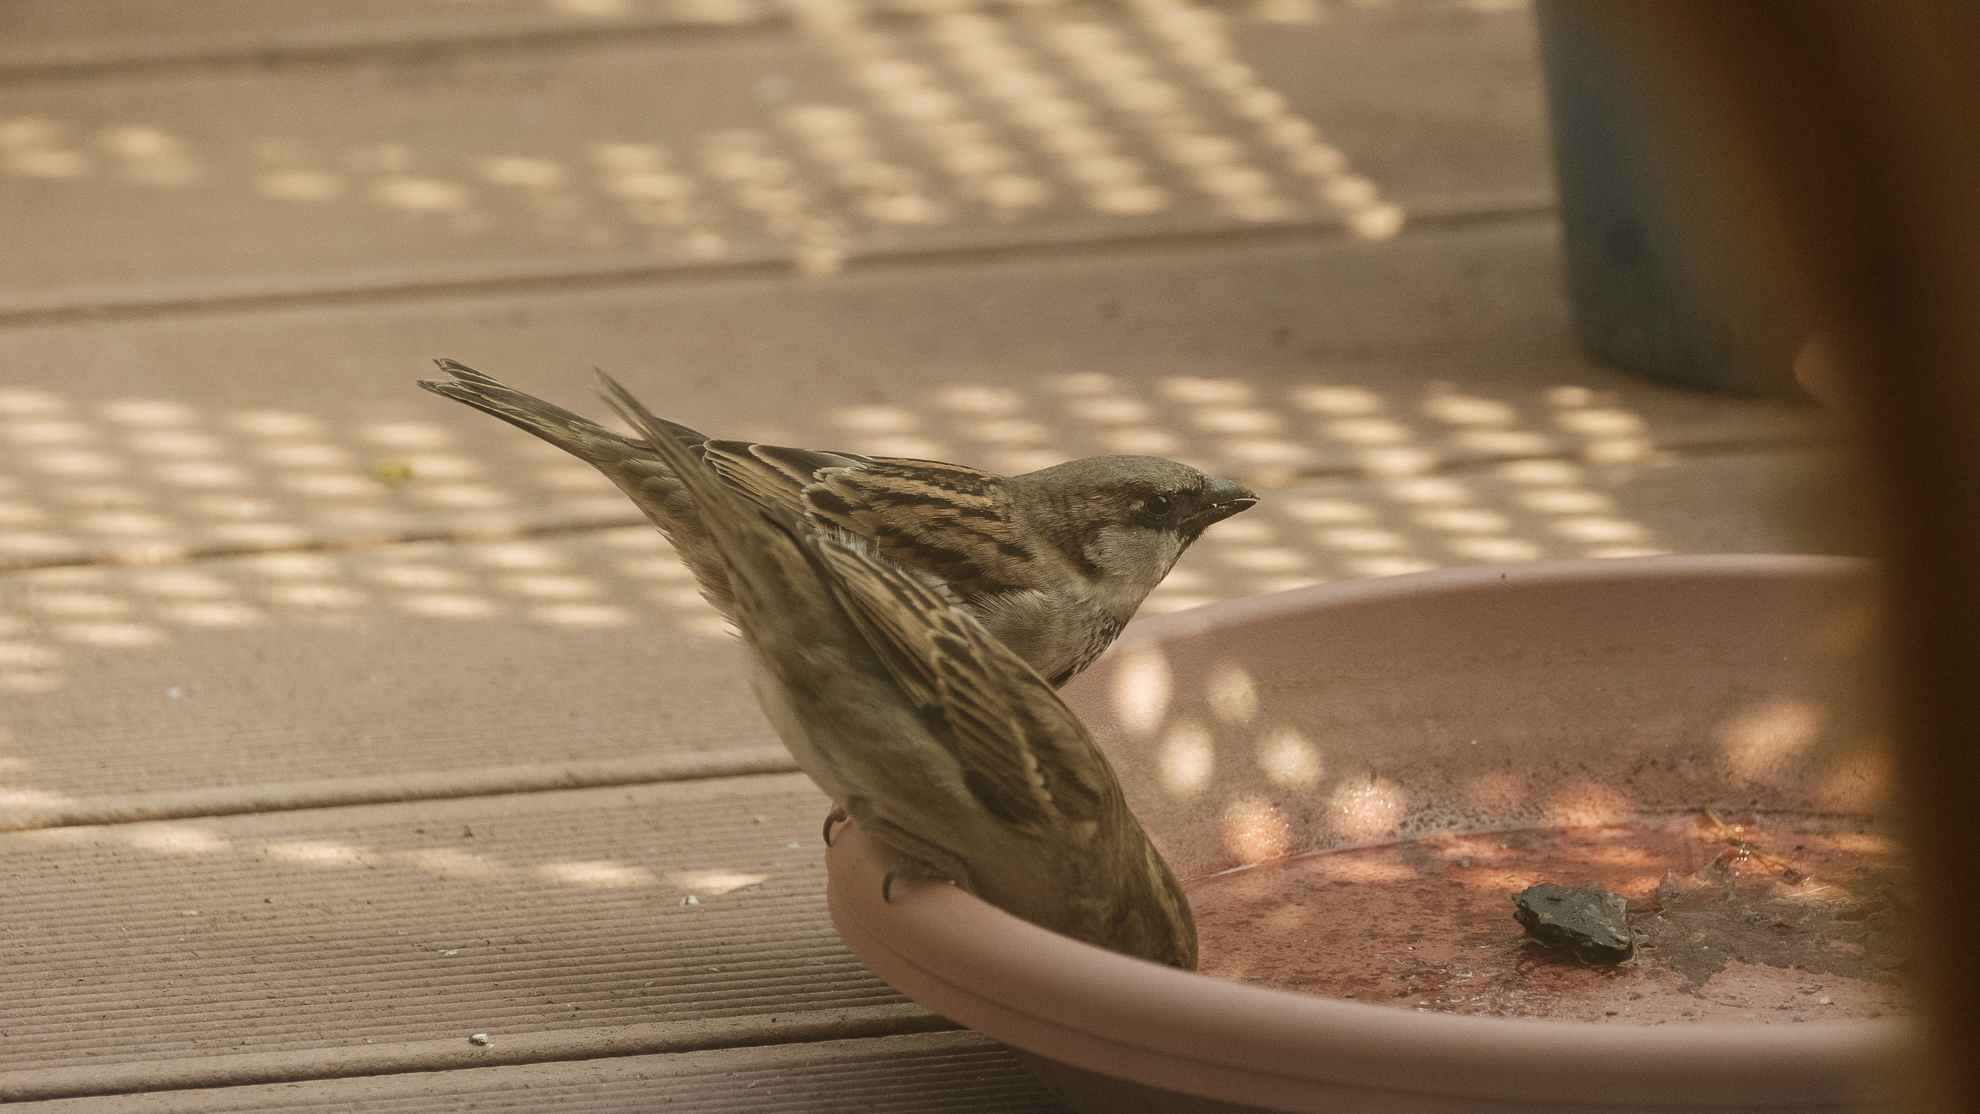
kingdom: Animalia
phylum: Chordata
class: Aves
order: Passeriformes
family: Passeridae
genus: Passer
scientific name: Passer domesticus
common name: House sparrow
